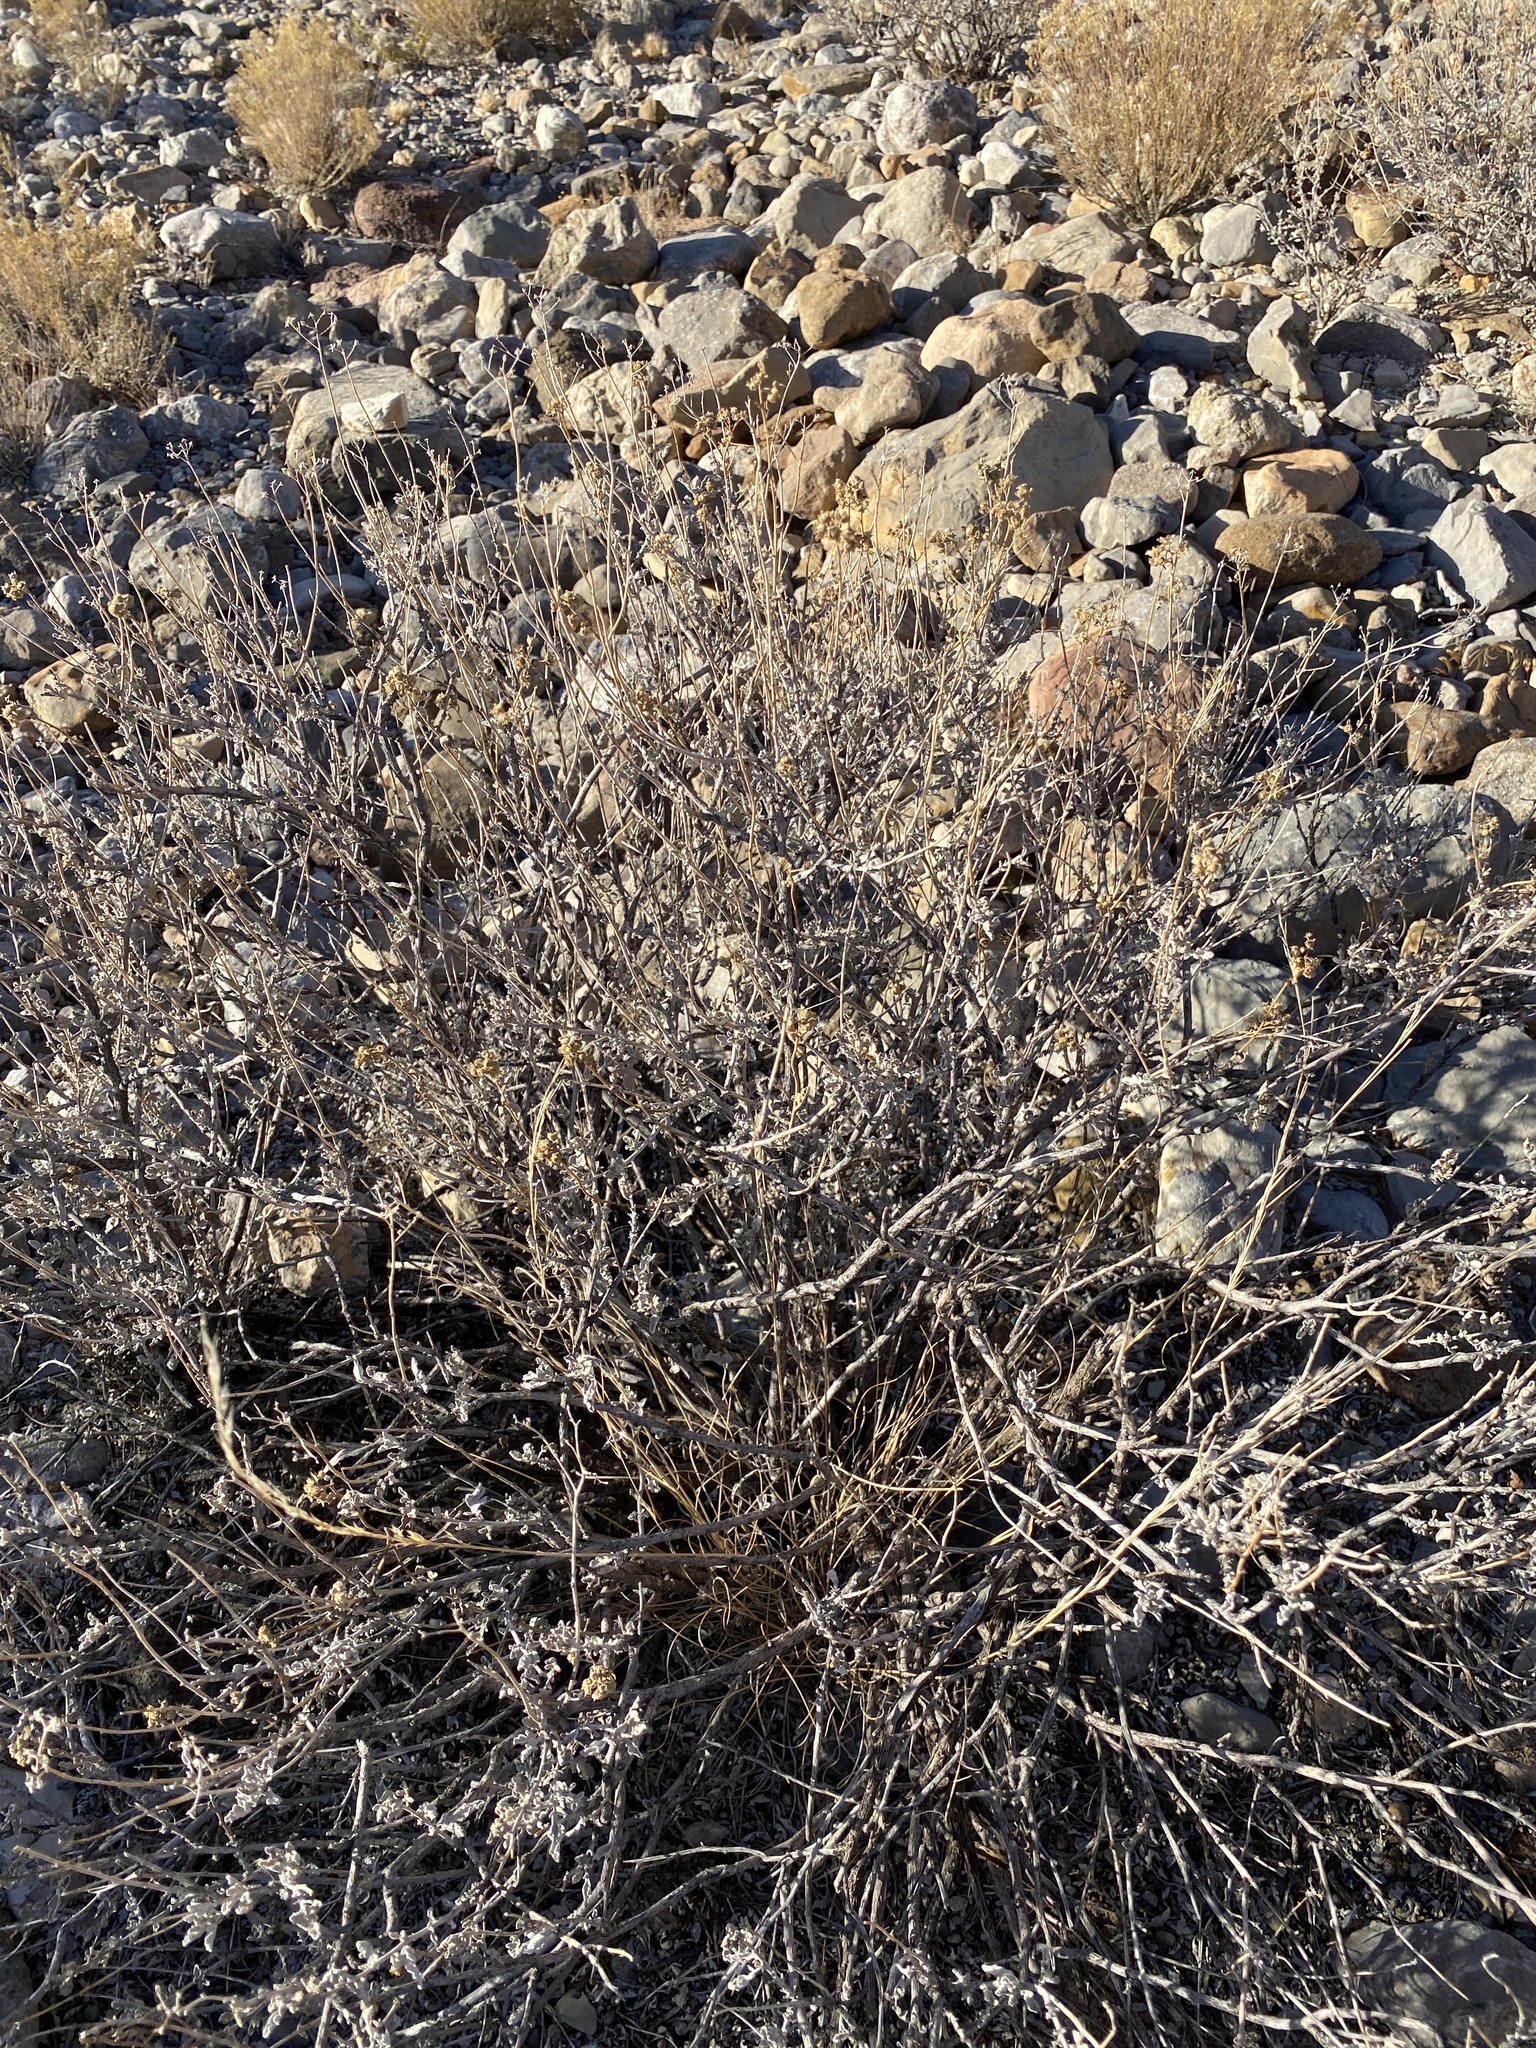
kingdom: Plantae
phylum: Tracheophyta
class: Magnoliopsida
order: Asterales
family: Asteraceae
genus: Parthenium
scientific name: Parthenium incanum
